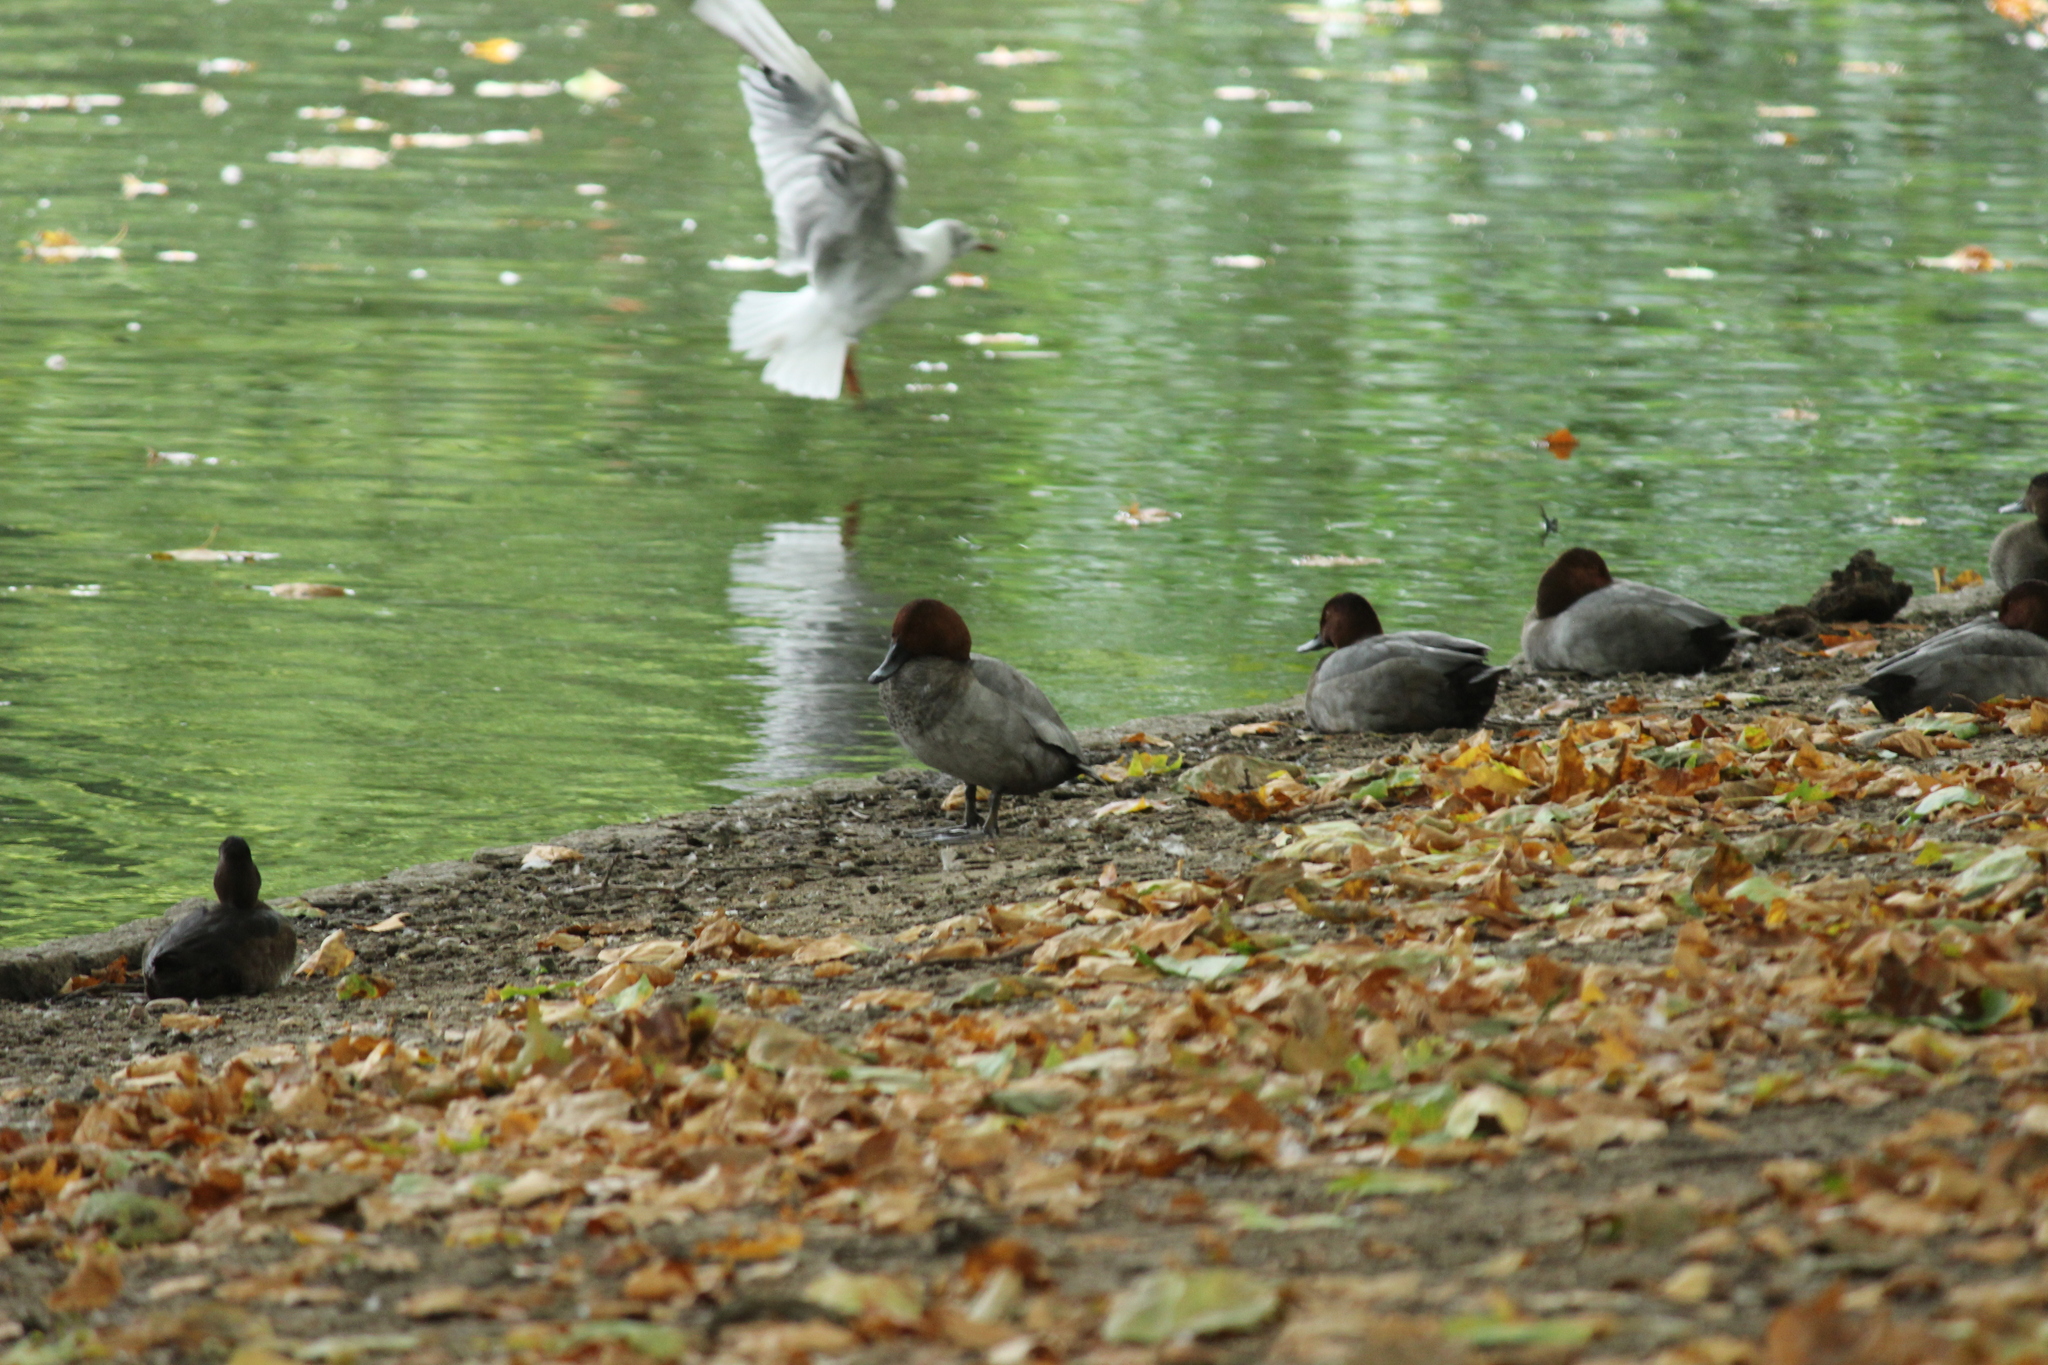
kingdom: Animalia
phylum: Chordata
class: Aves
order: Anseriformes
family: Anatidae
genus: Aythya
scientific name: Aythya ferina
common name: Common pochard
